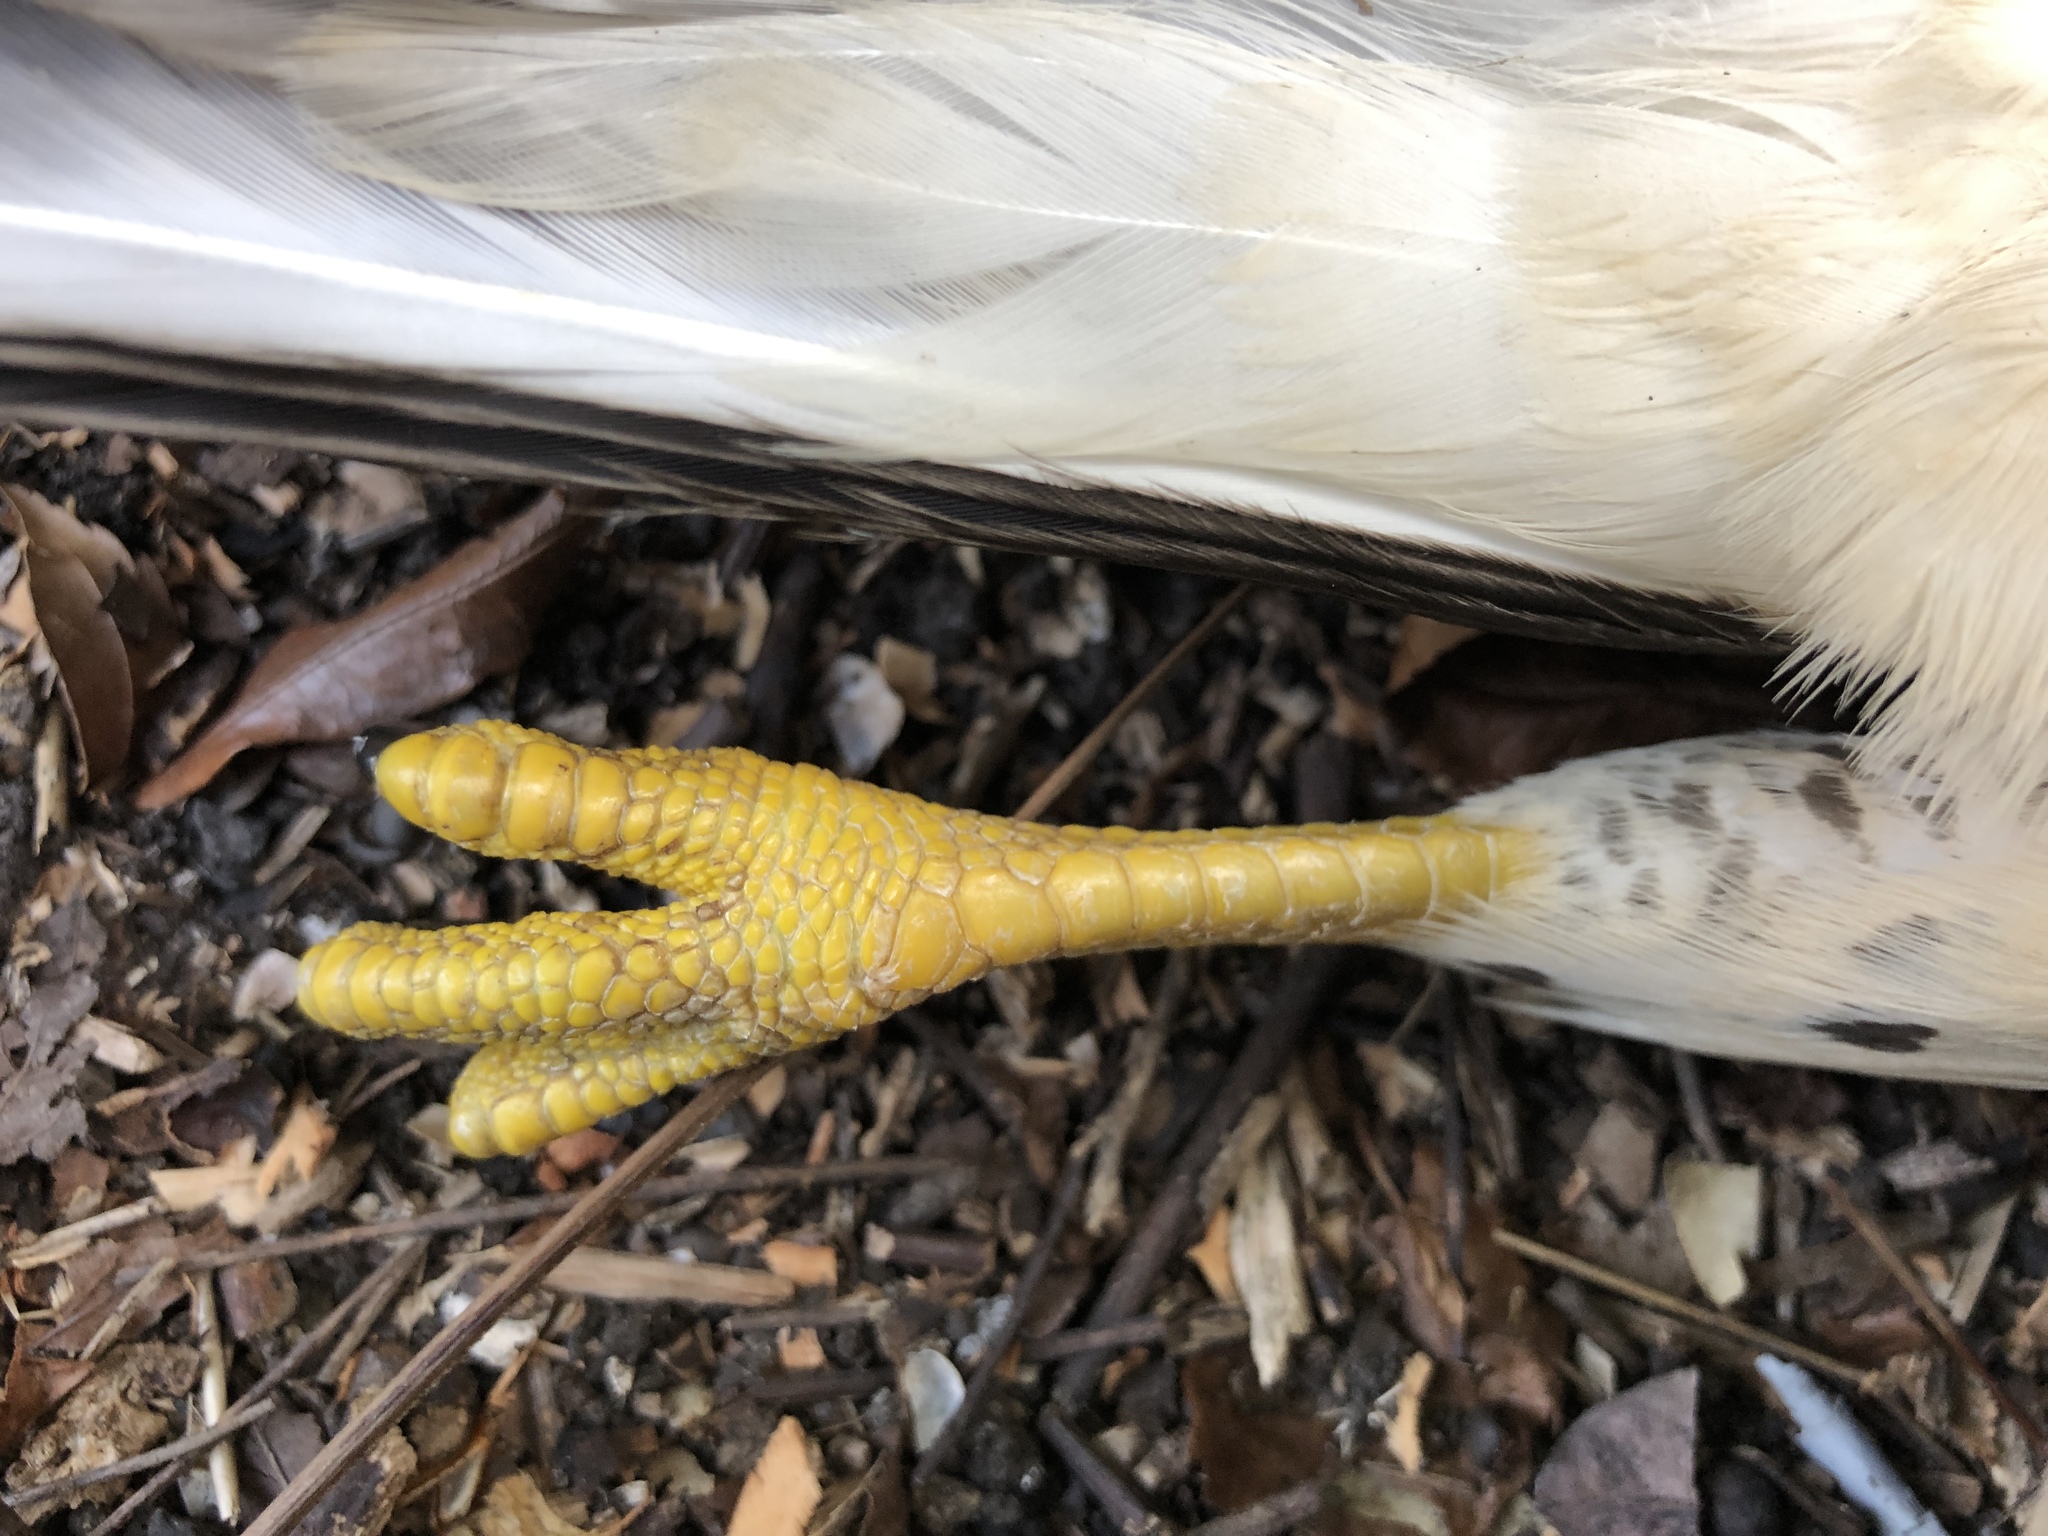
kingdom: Animalia
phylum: Chordata
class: Aves
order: Accipitriformes
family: Accipitridae
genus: Buteo
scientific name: Buteo platypterus
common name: Broad-winged hawk
